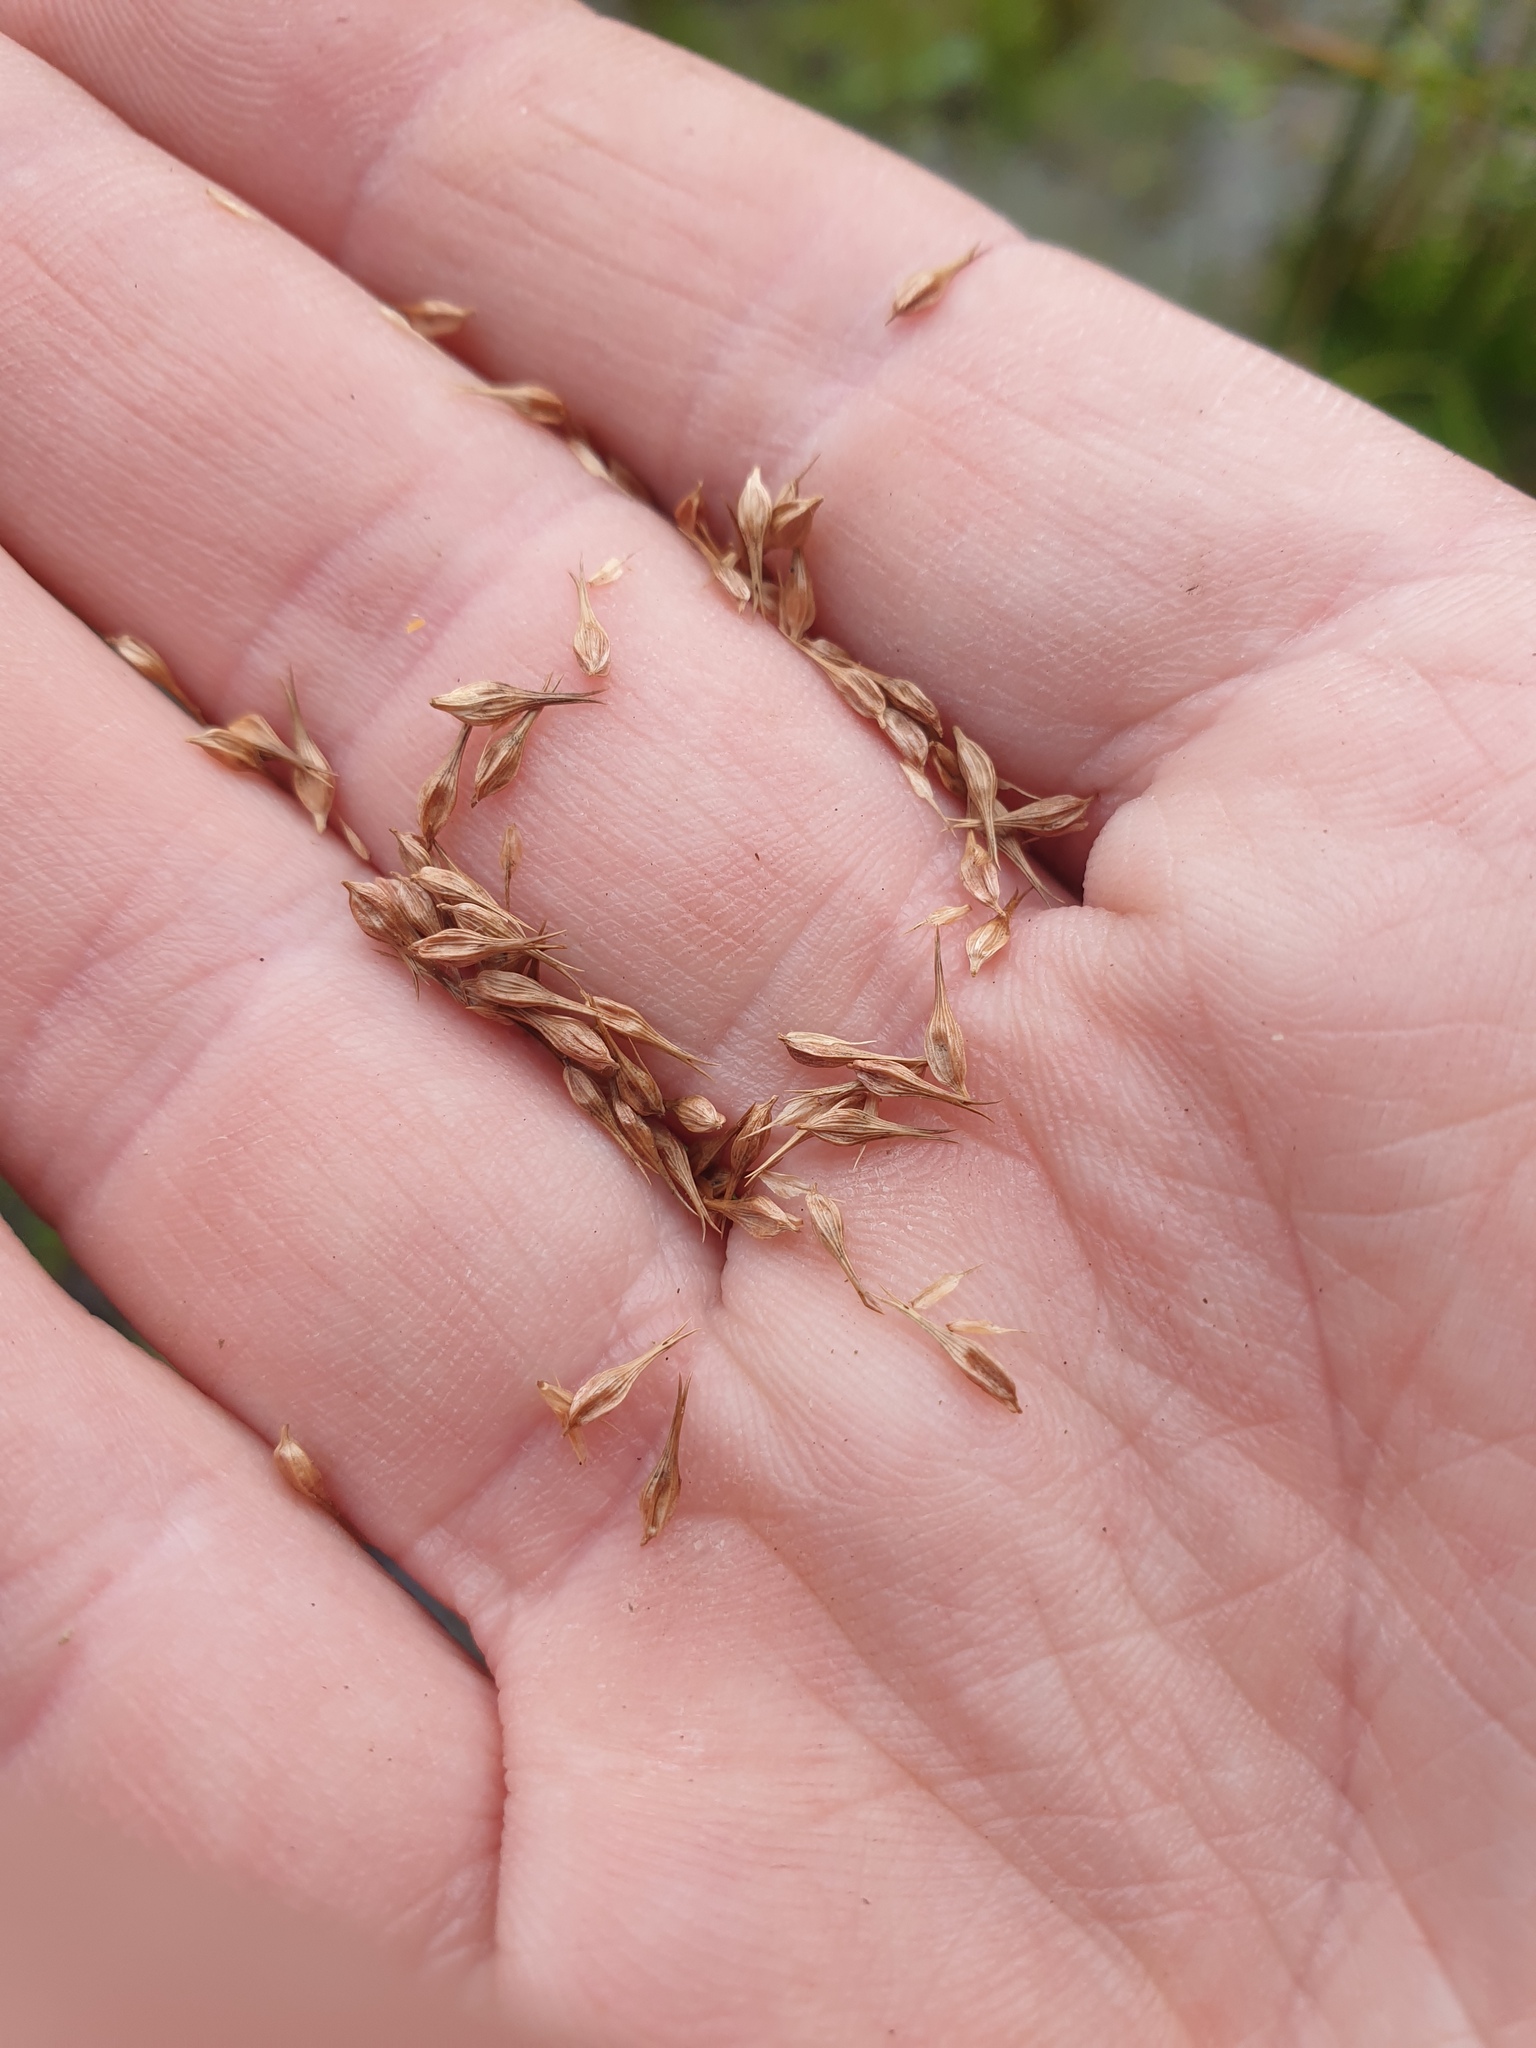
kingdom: Plantae
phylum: Tracheophyta
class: Liliopsida
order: Poales
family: Cyperaceae
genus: Carex
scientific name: Carex comosa
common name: Bristly sedge
